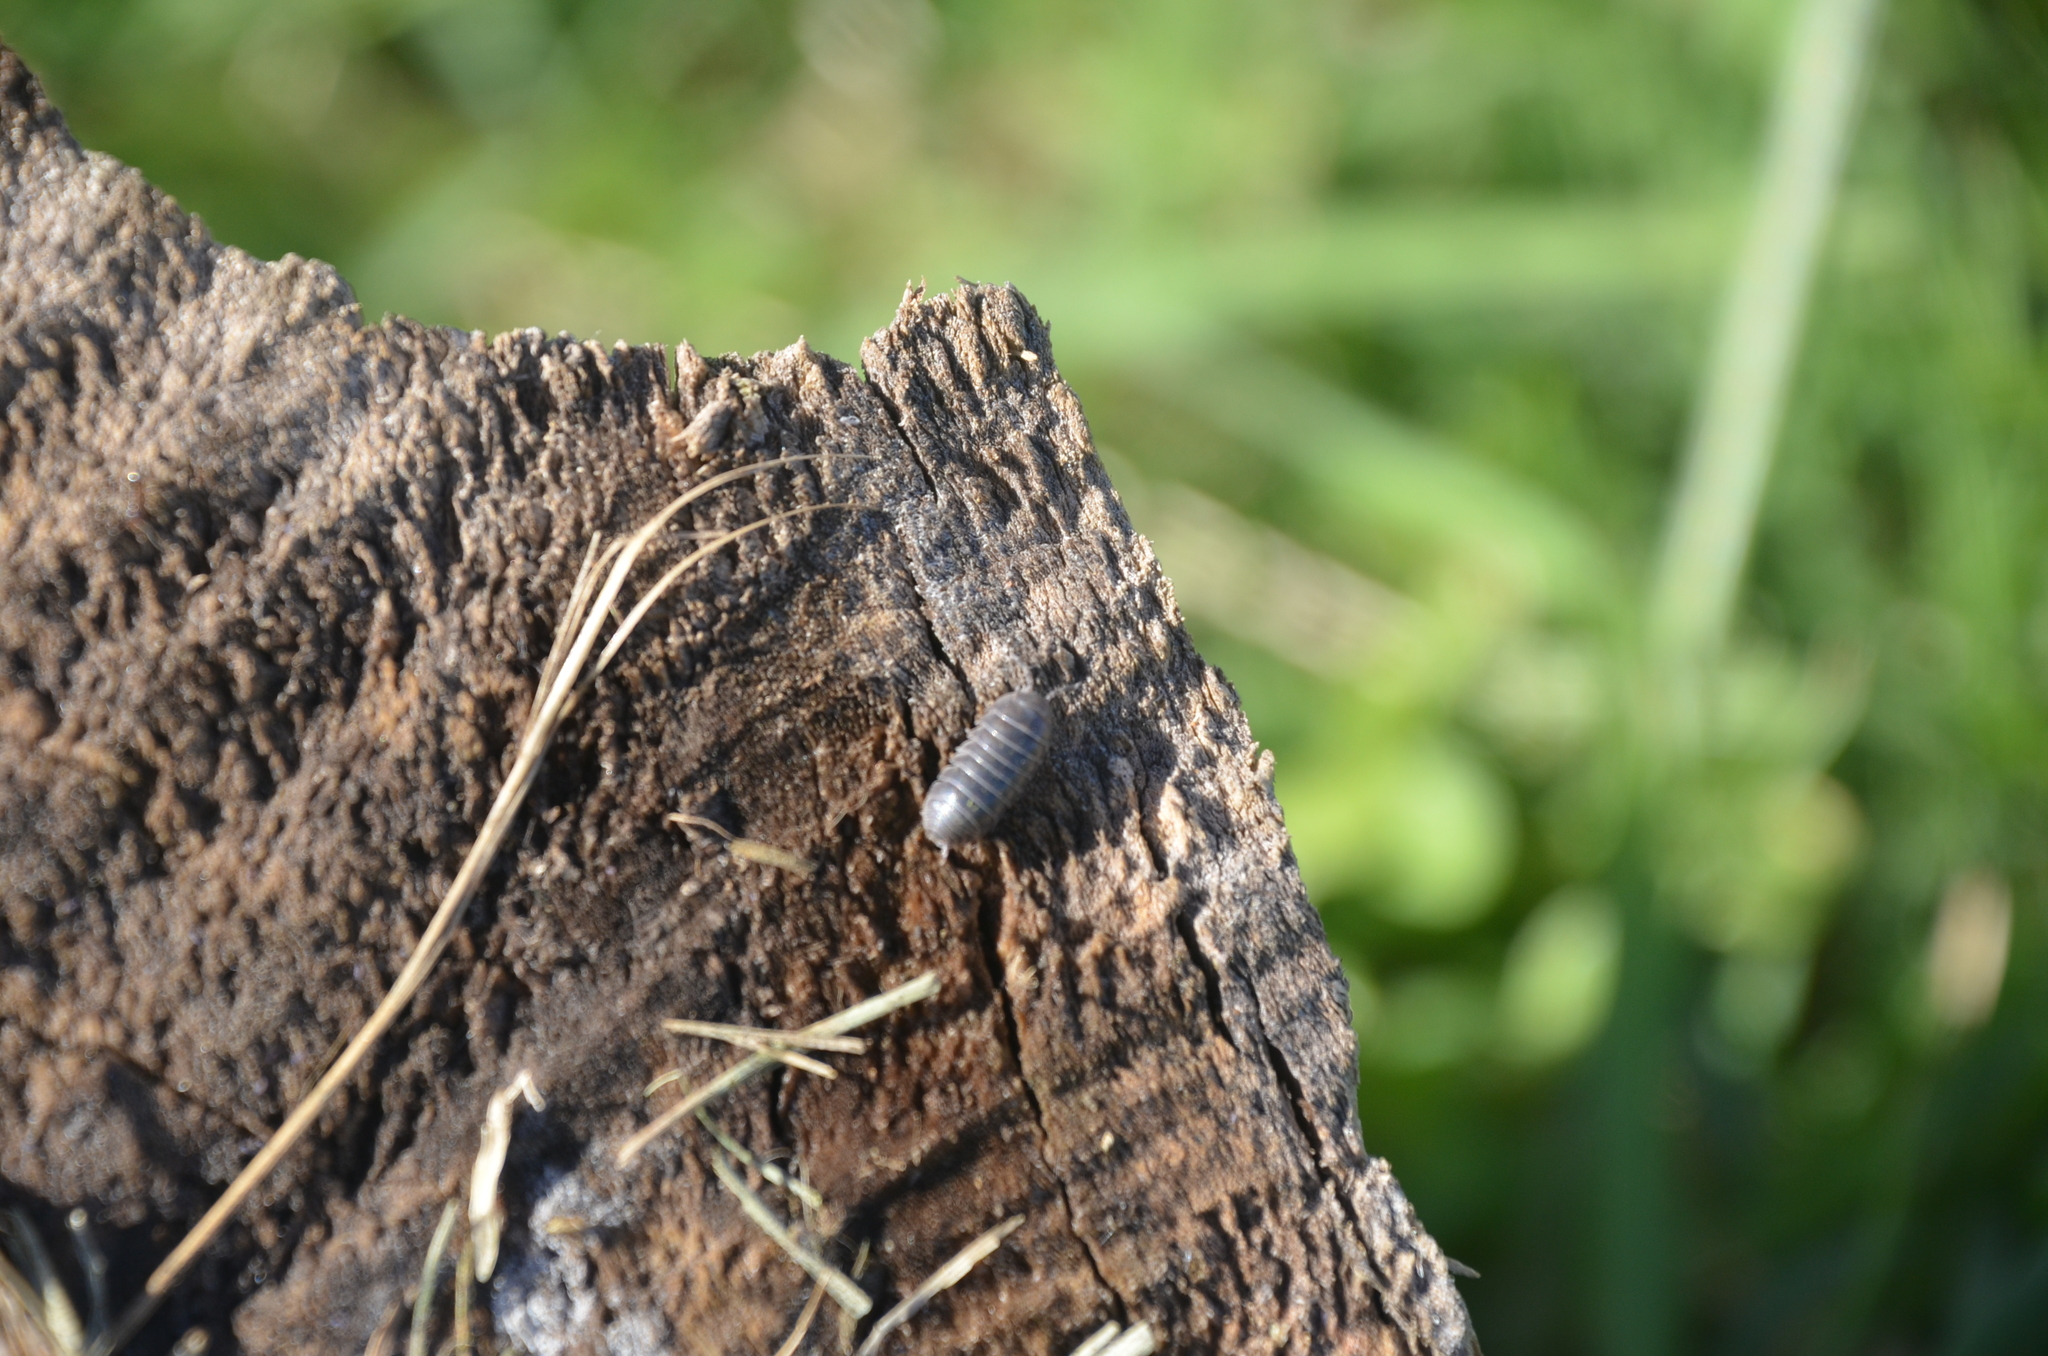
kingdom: Animalia
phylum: Arthropoda
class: Malacostraca
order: Isopoda
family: Armadillidiidae
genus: Armadillidium
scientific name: Armadillidium vulgare
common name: Common pill woodlouse
